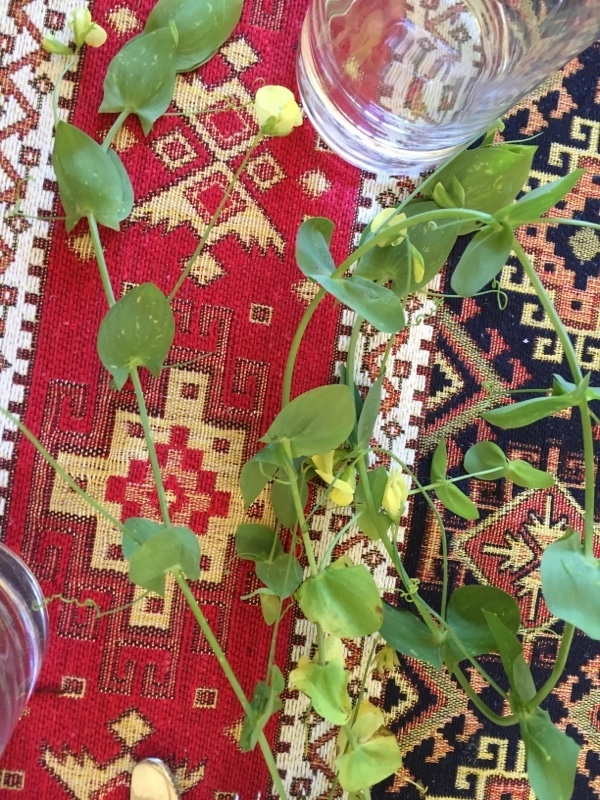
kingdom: Plantae
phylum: Tracheophyta
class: Magnoliopsida
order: Fabales
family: Fabaceae
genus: Lathyrus
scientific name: Lathyrus aphaca
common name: Yellow vetchling
